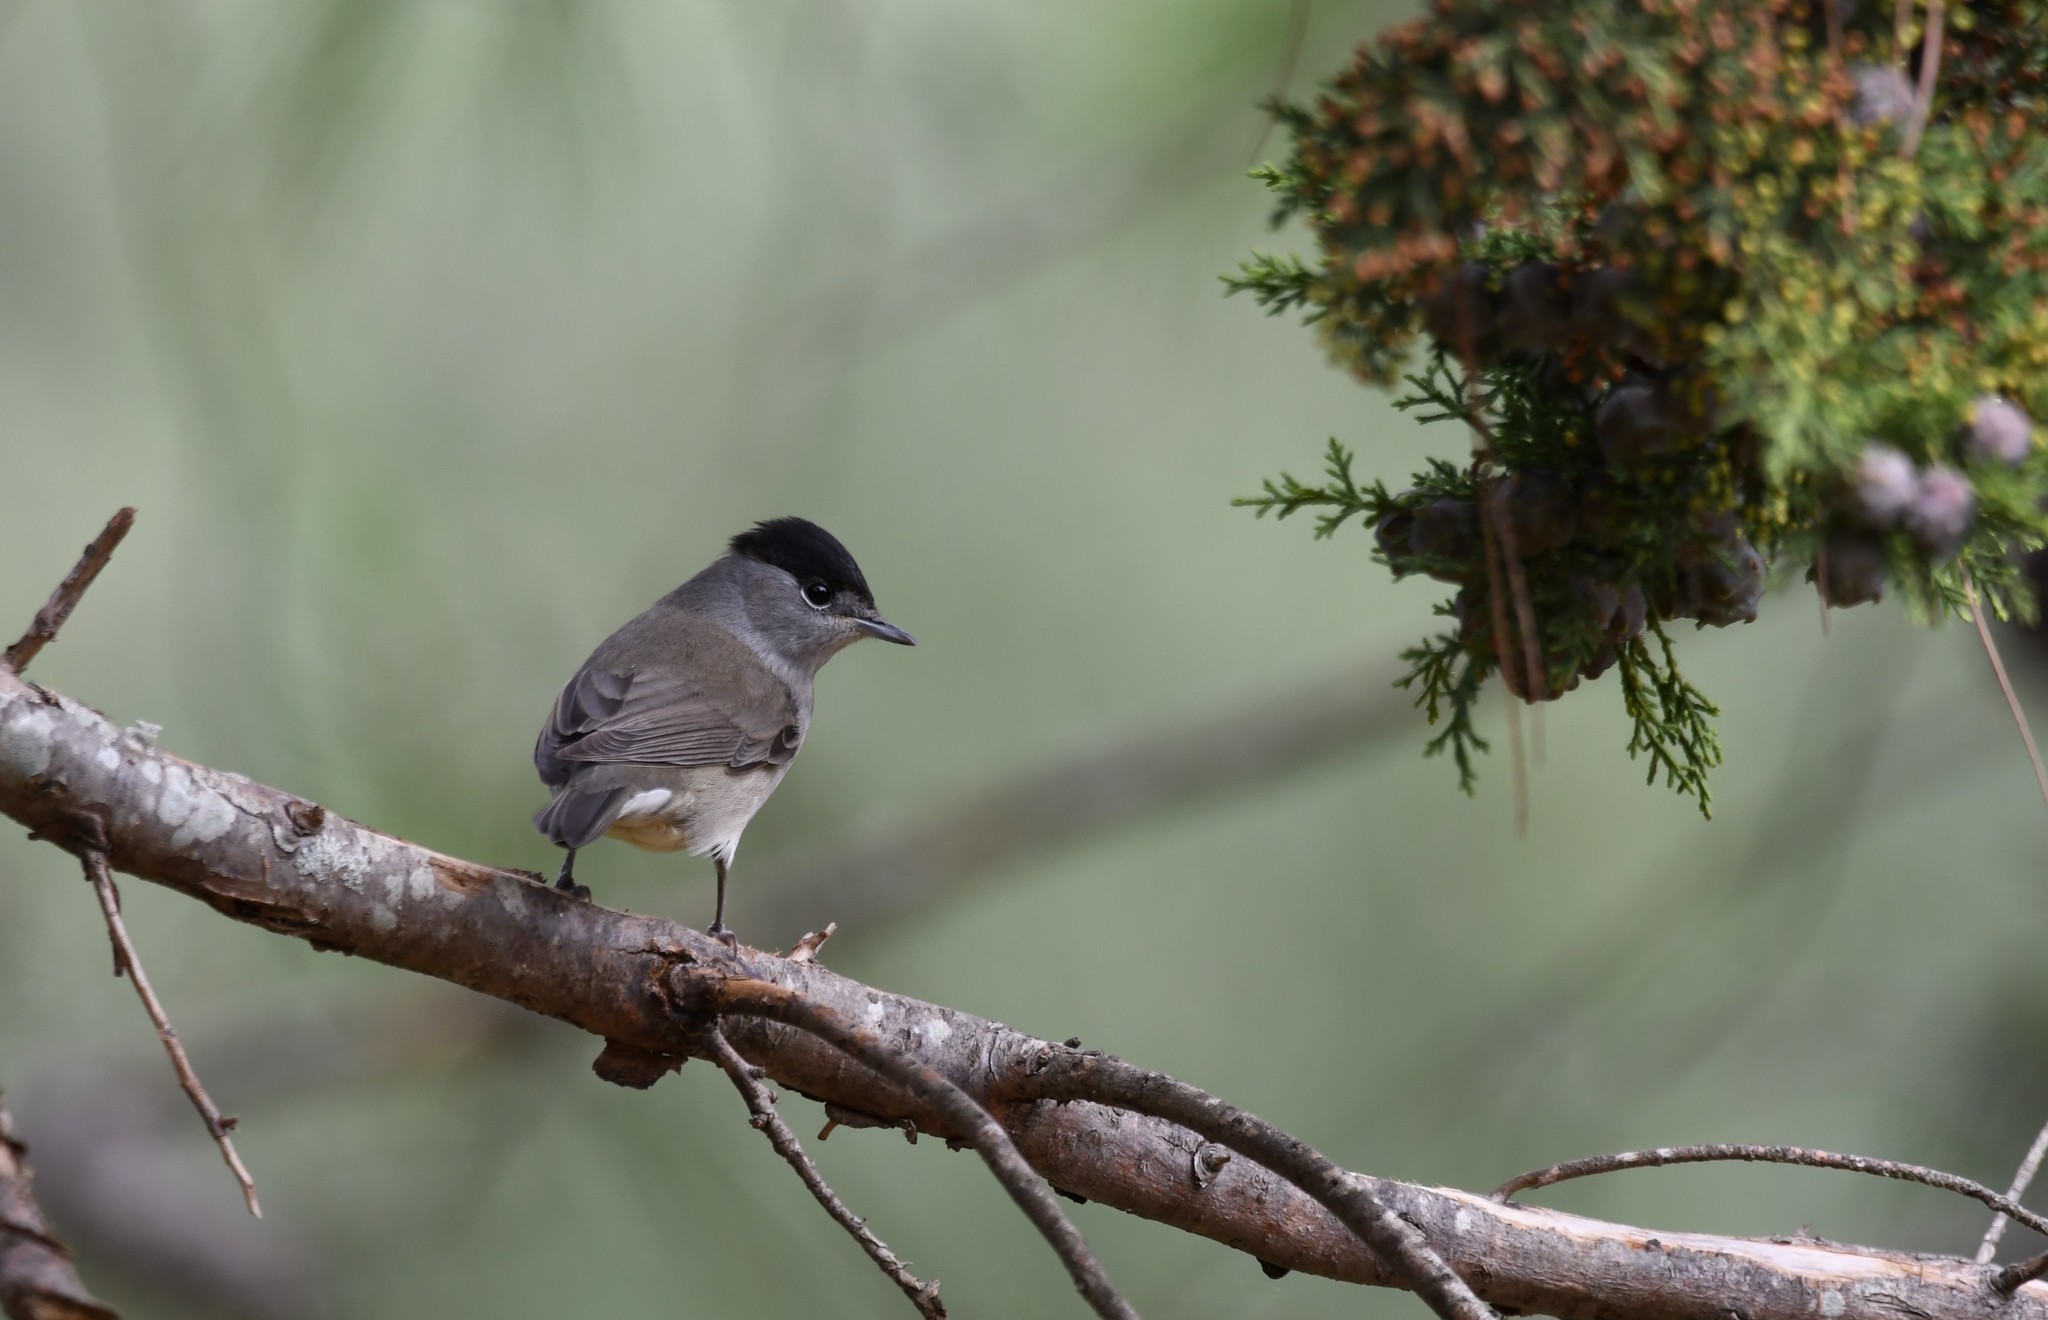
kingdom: Animalia
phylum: Chordata
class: Aves
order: Passeriformes
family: Sylviidae
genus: Sylvia
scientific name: Sylvia atricapilla
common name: Eurasian blackcap
